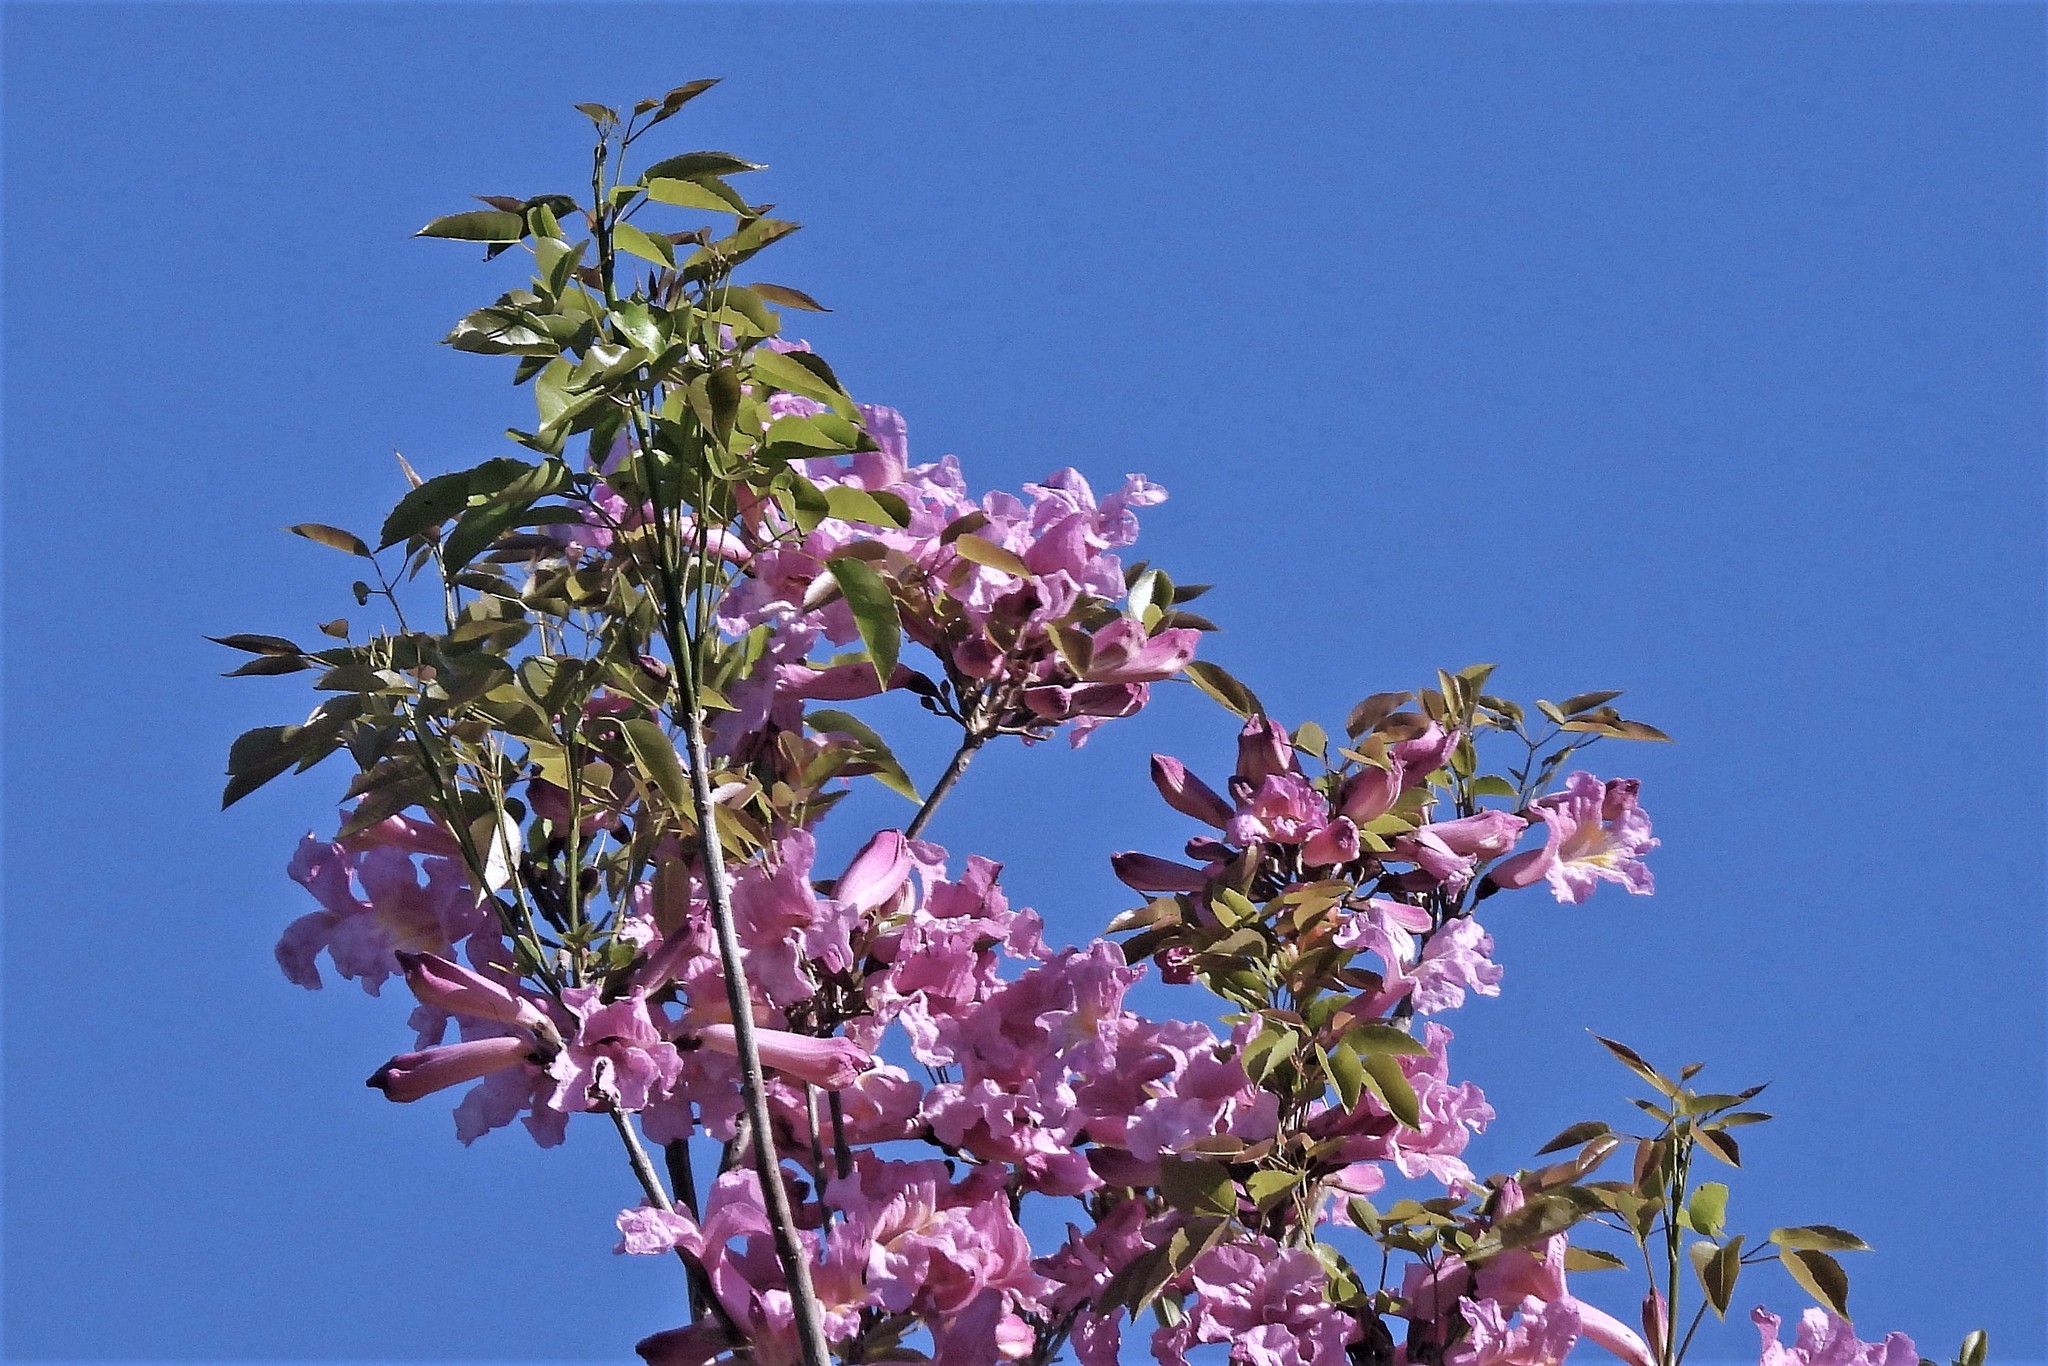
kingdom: Plantae
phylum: Tracheophyta
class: Magnoliopsida
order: Lamiales
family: Bignoniaceae
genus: Handroanthus
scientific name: Handroanthus heptaphyllus
